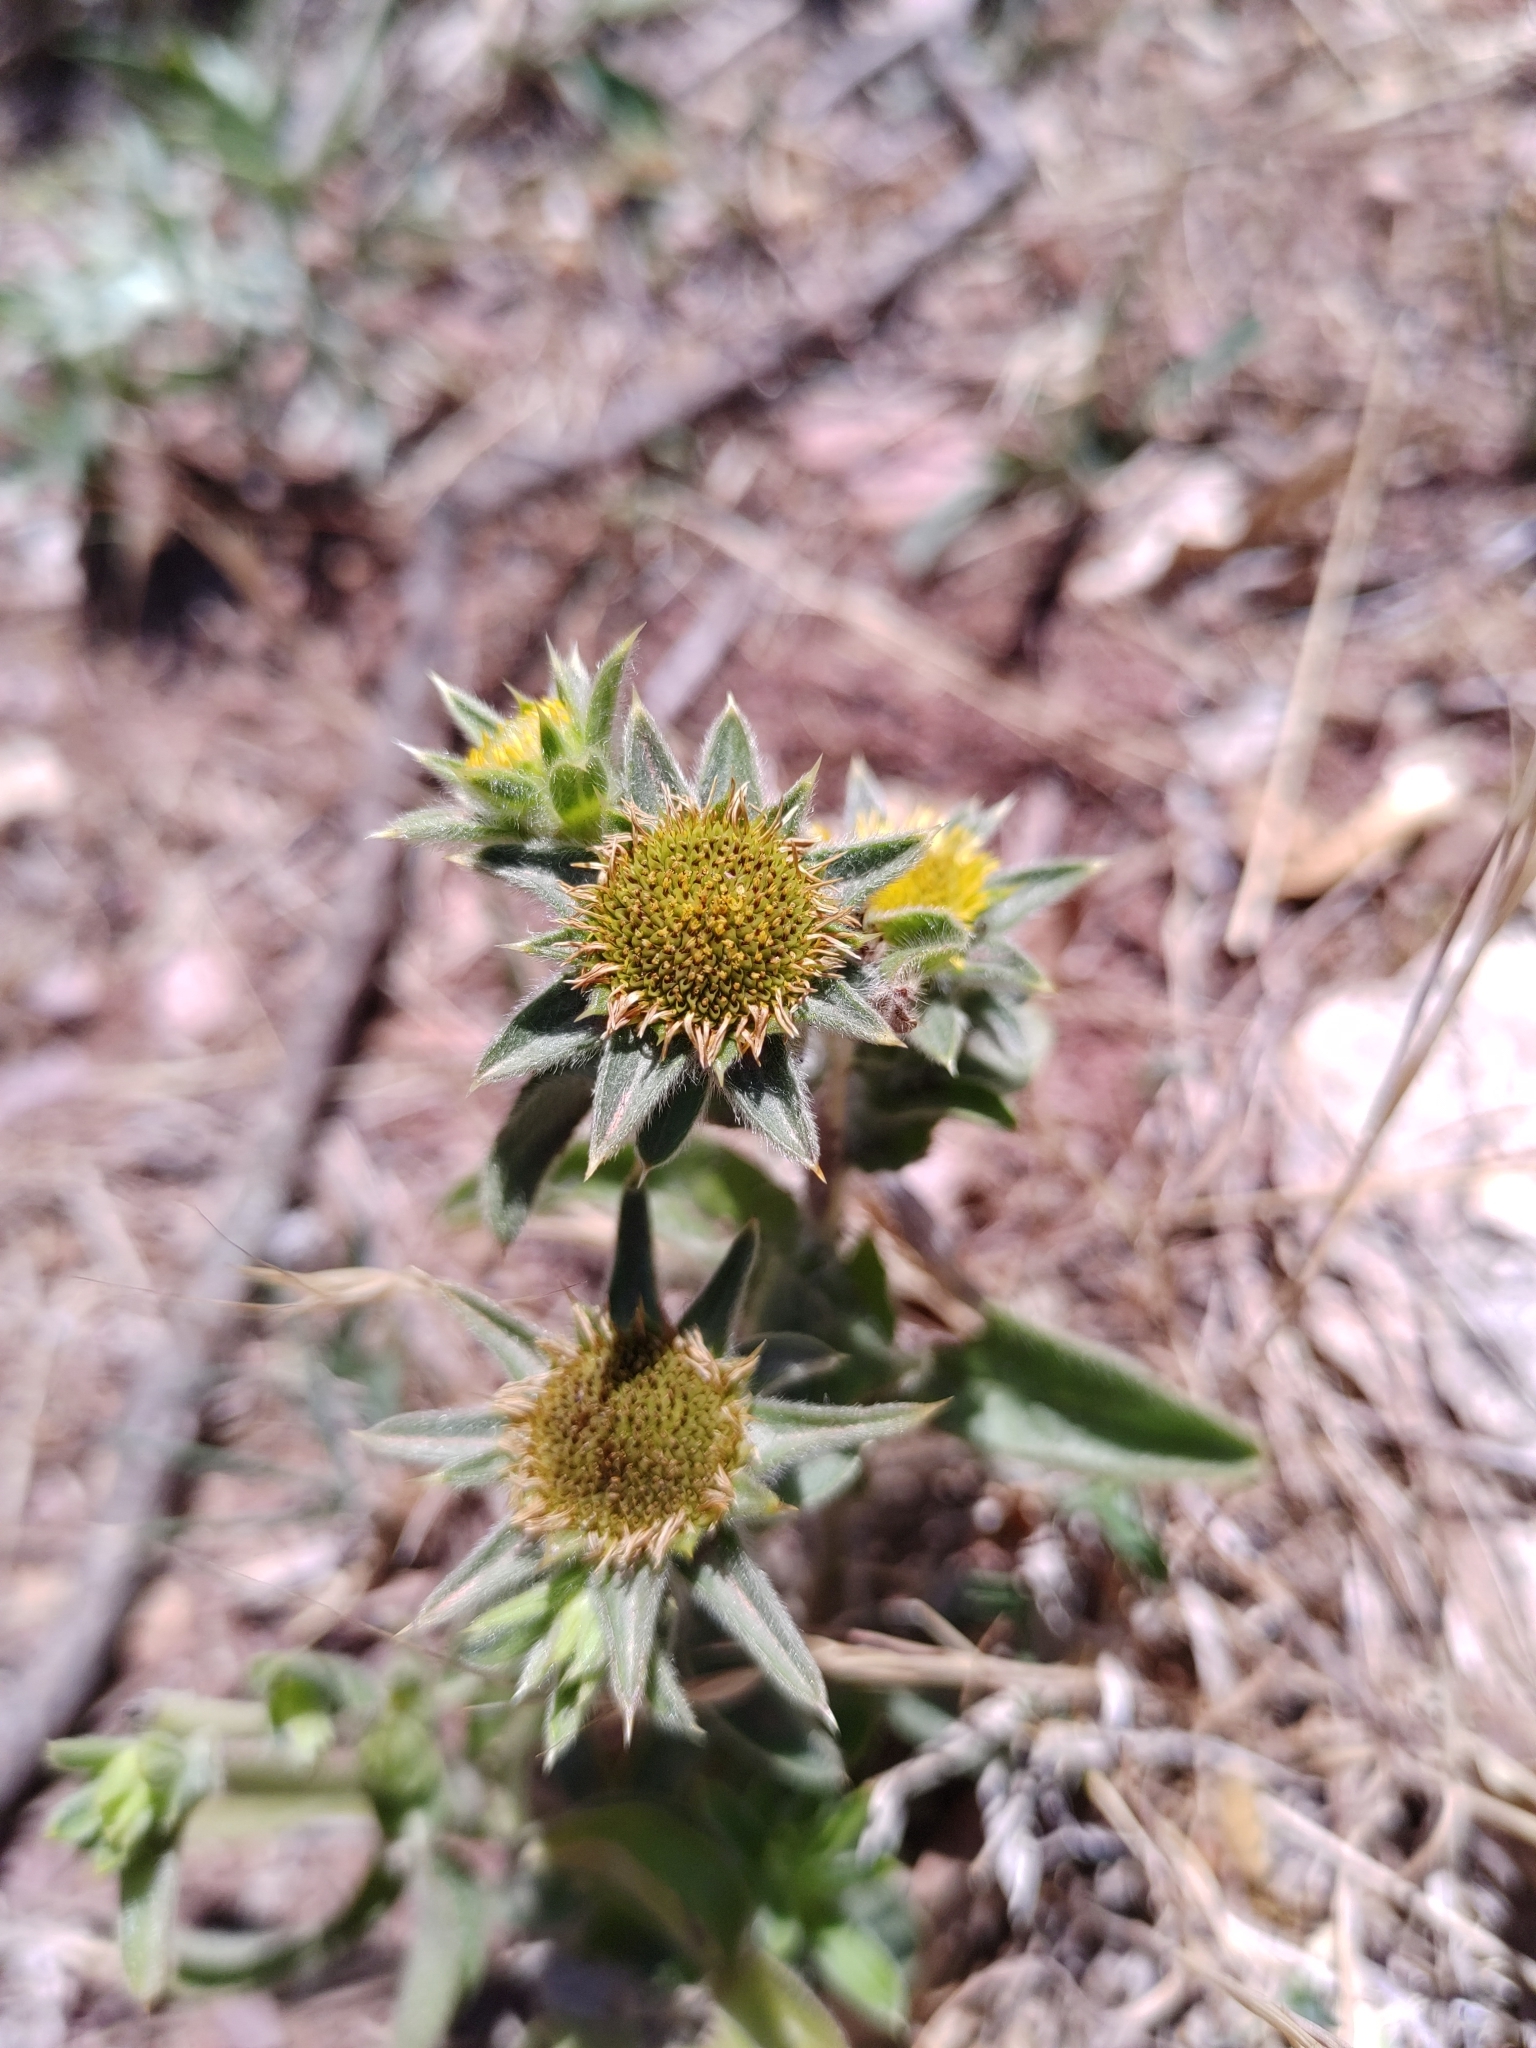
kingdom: Plantae
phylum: Tracheophyta
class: Magnoliopsida
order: Asterales
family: Asteraceae
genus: Pallenis
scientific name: Pallenis spinosa
